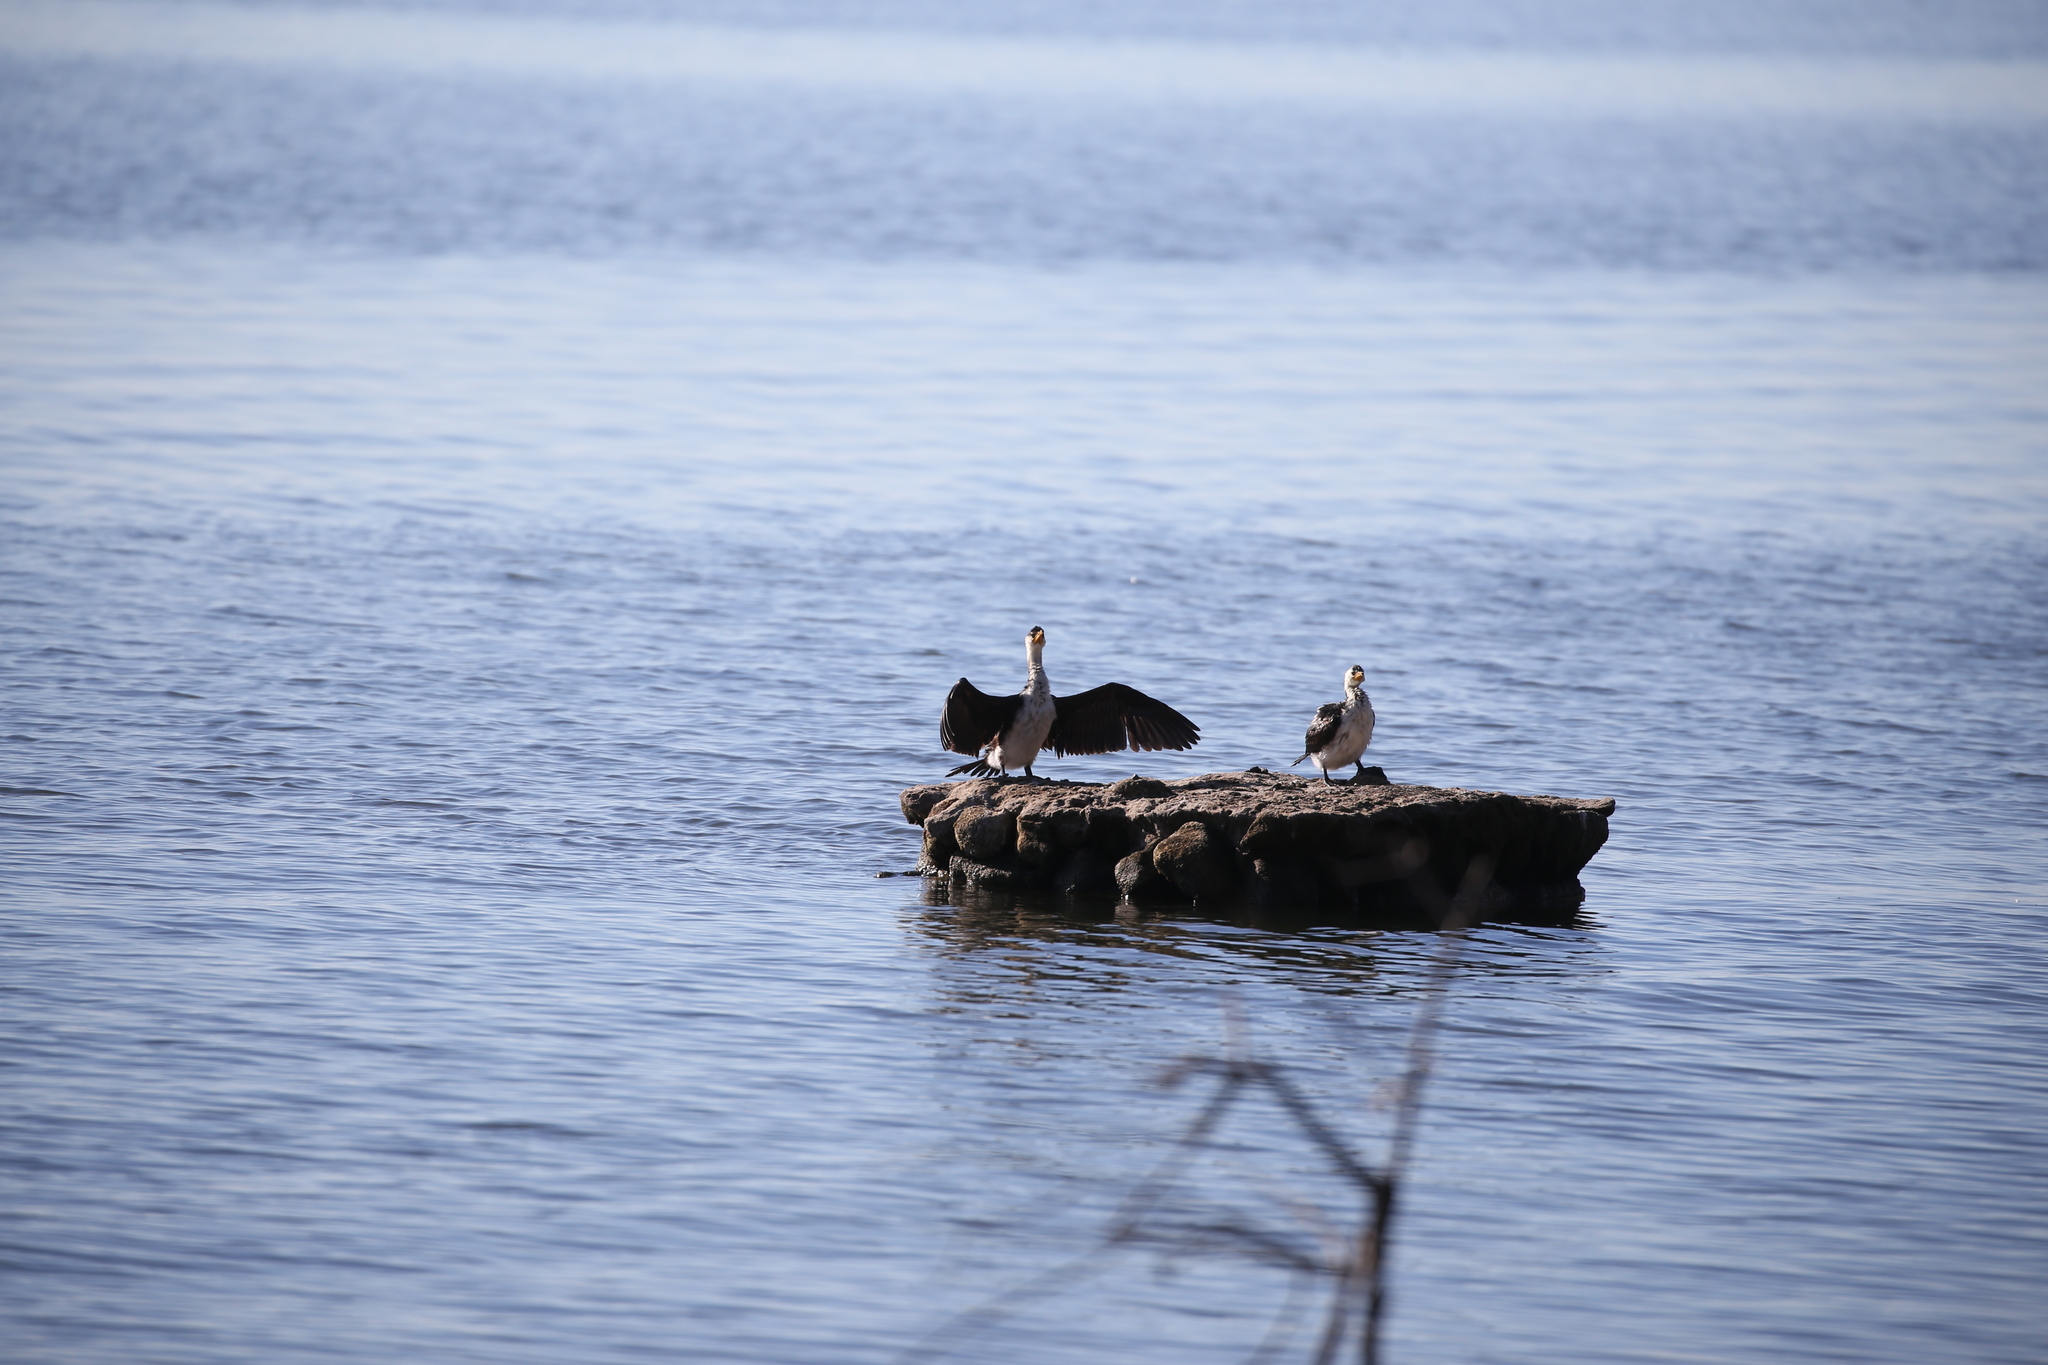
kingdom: Animalia
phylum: Chordata
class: Aves
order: Suliformes
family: Phalacrocoracidae
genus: Microcarbo
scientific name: Microcarbo melanoleucos
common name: Little pied cormorant
